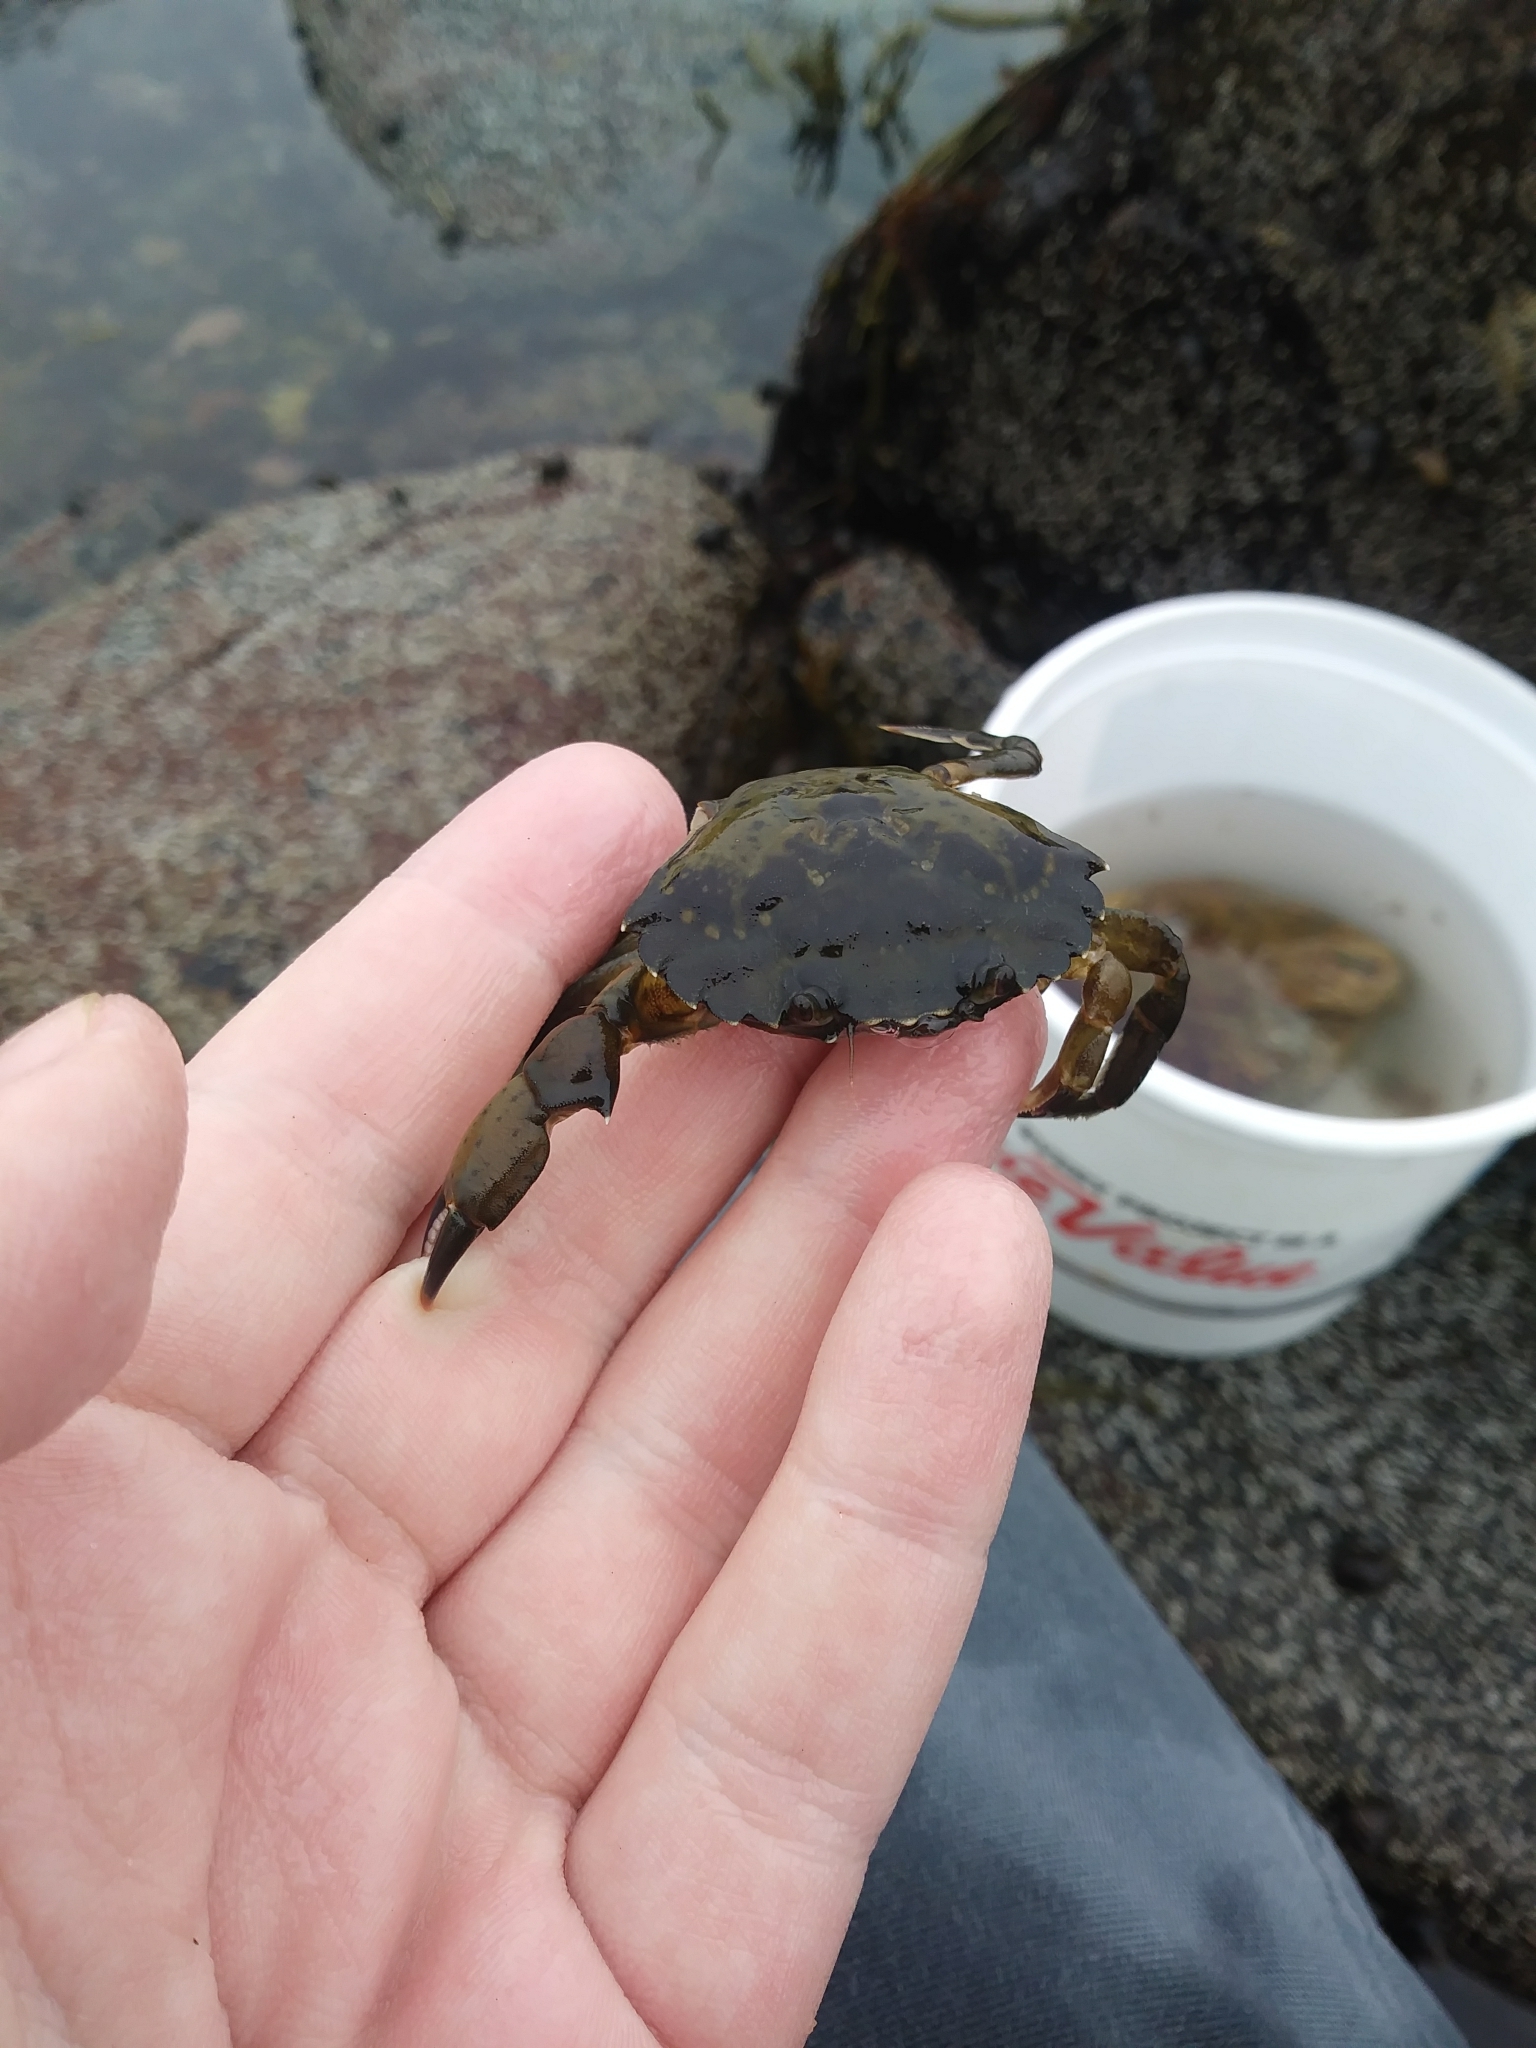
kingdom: Animalia
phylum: Arthropoda
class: Malacostraca
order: Decapoda
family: Carcinidae
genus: Carcinus
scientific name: Carcinus maenas
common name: European green crab
